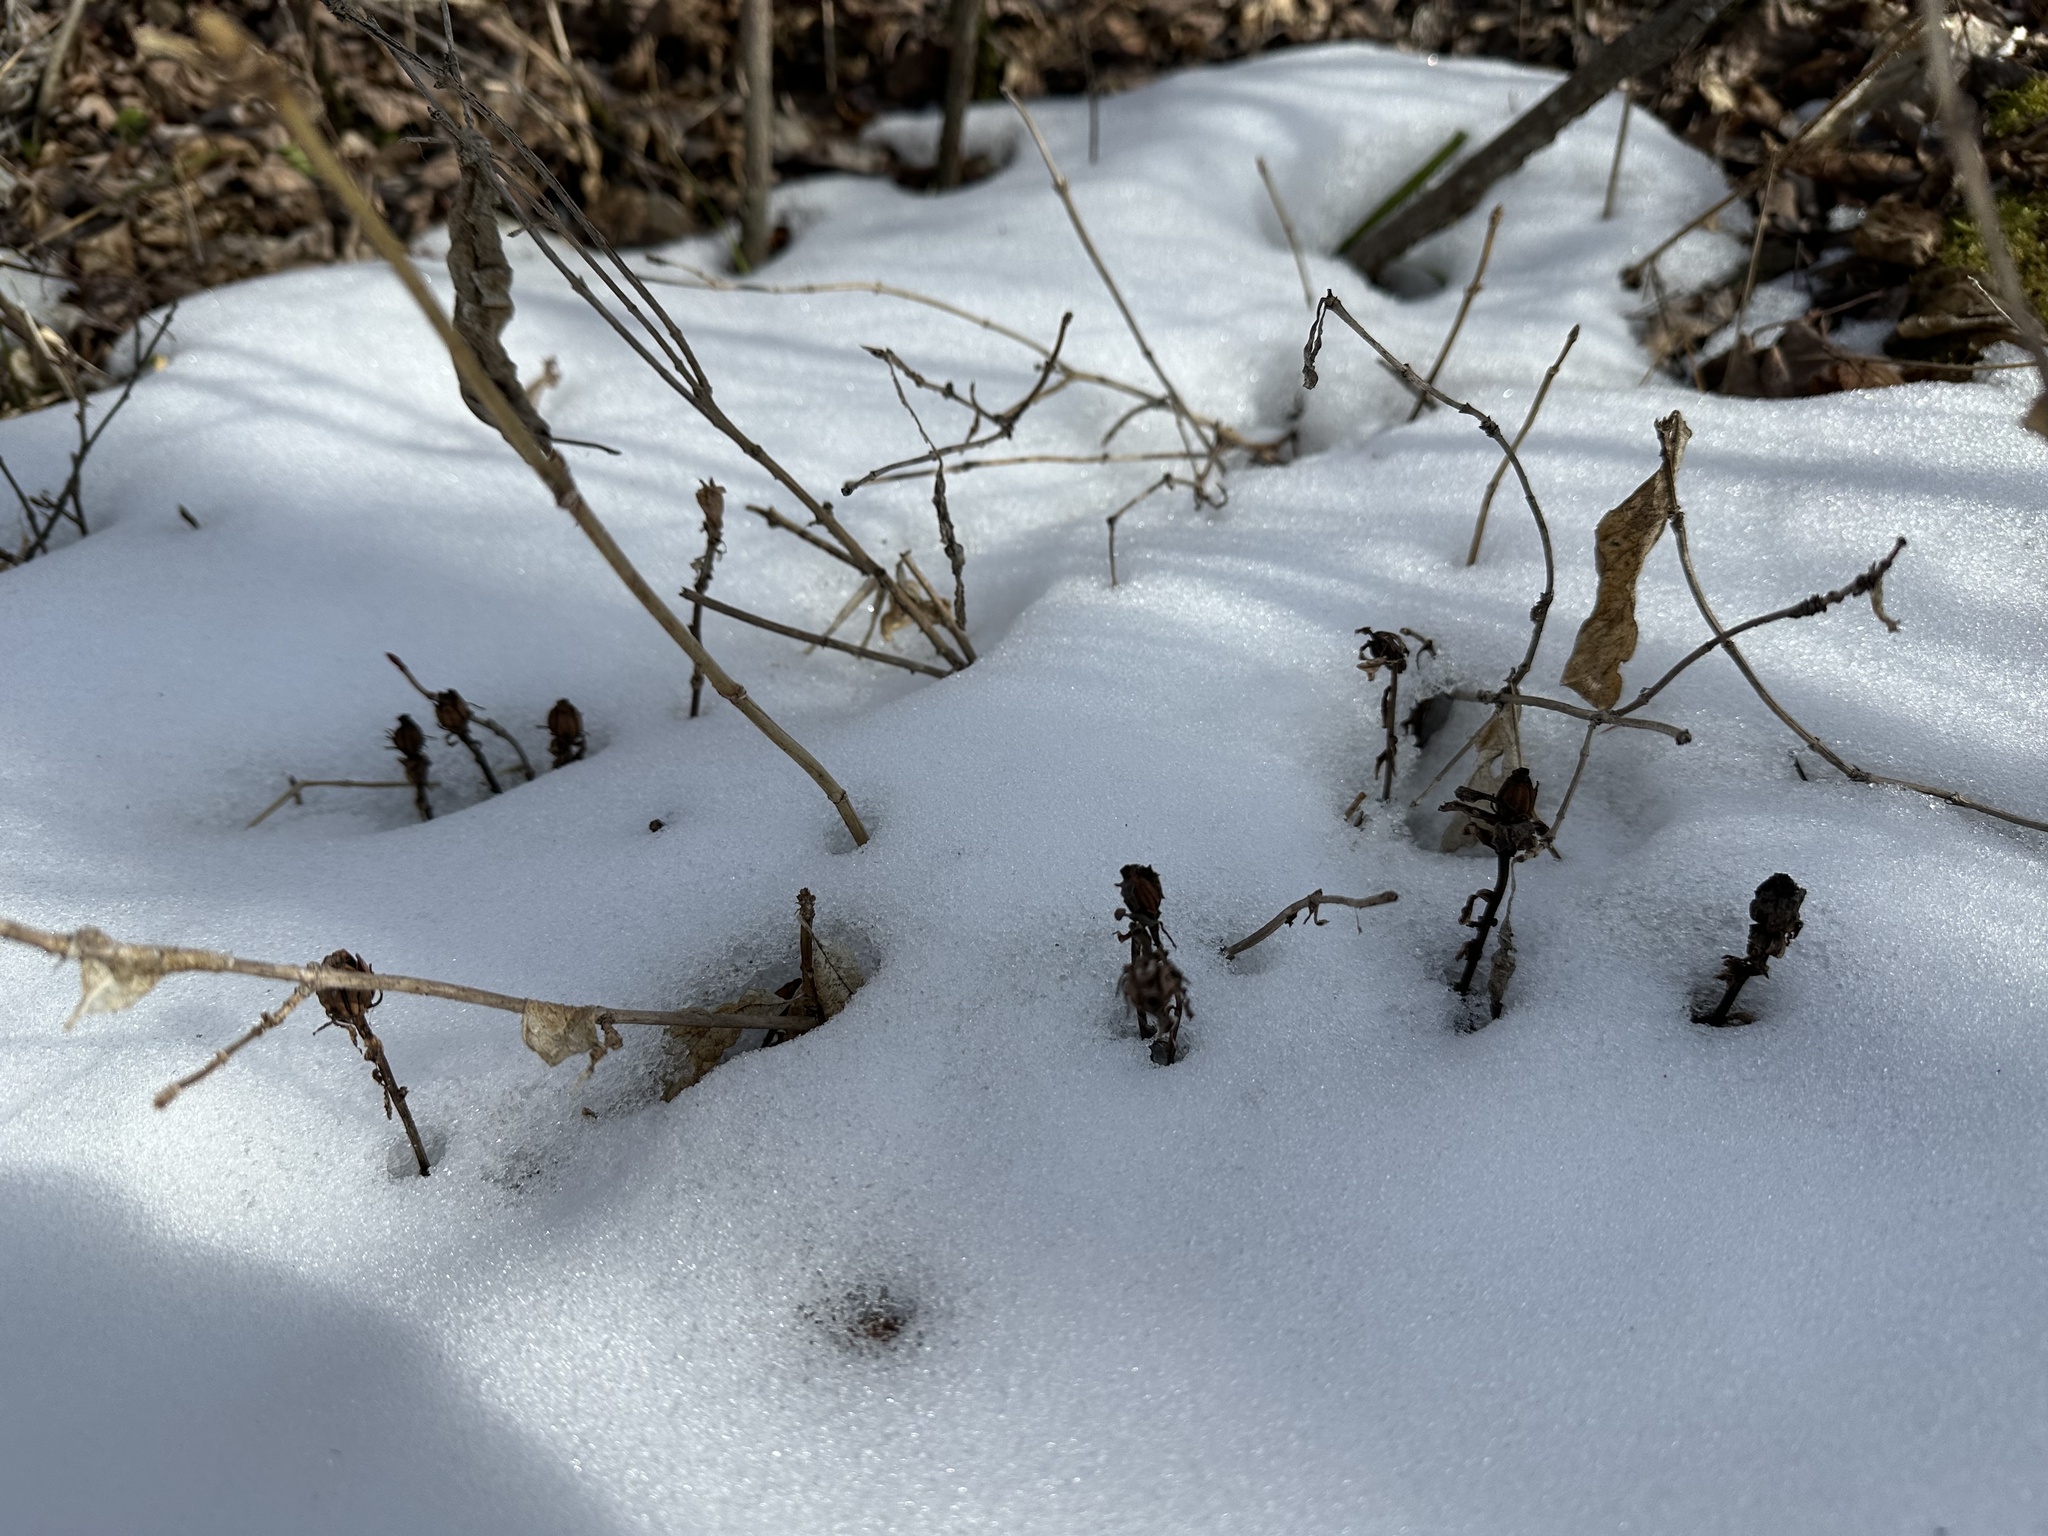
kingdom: Plantae
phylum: Tracheophyta
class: Magnoliopsida
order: Ericales
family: Ericaceae
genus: Monotropa
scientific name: Monotropa uniflora
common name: Convulsion root
